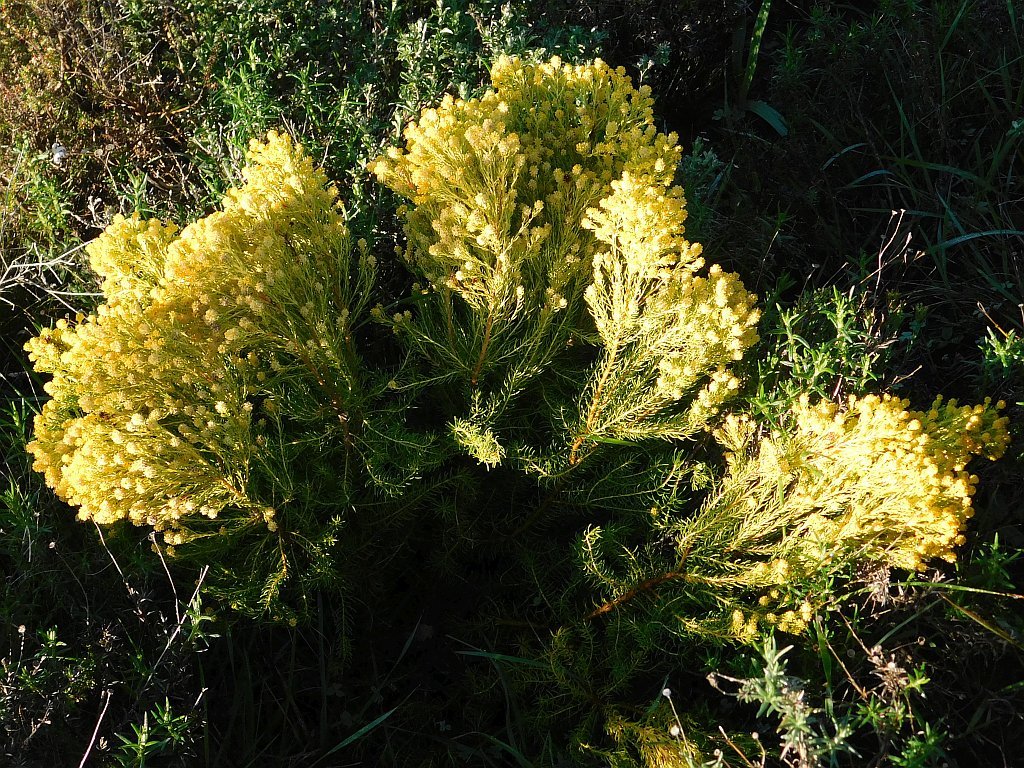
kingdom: Plantae
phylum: Tracheophyta
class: Magnoliopsida
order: Proteales
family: Proteaceae
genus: Leucadendron
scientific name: Leucadendron teretifolium
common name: Needle-leaf conebush
